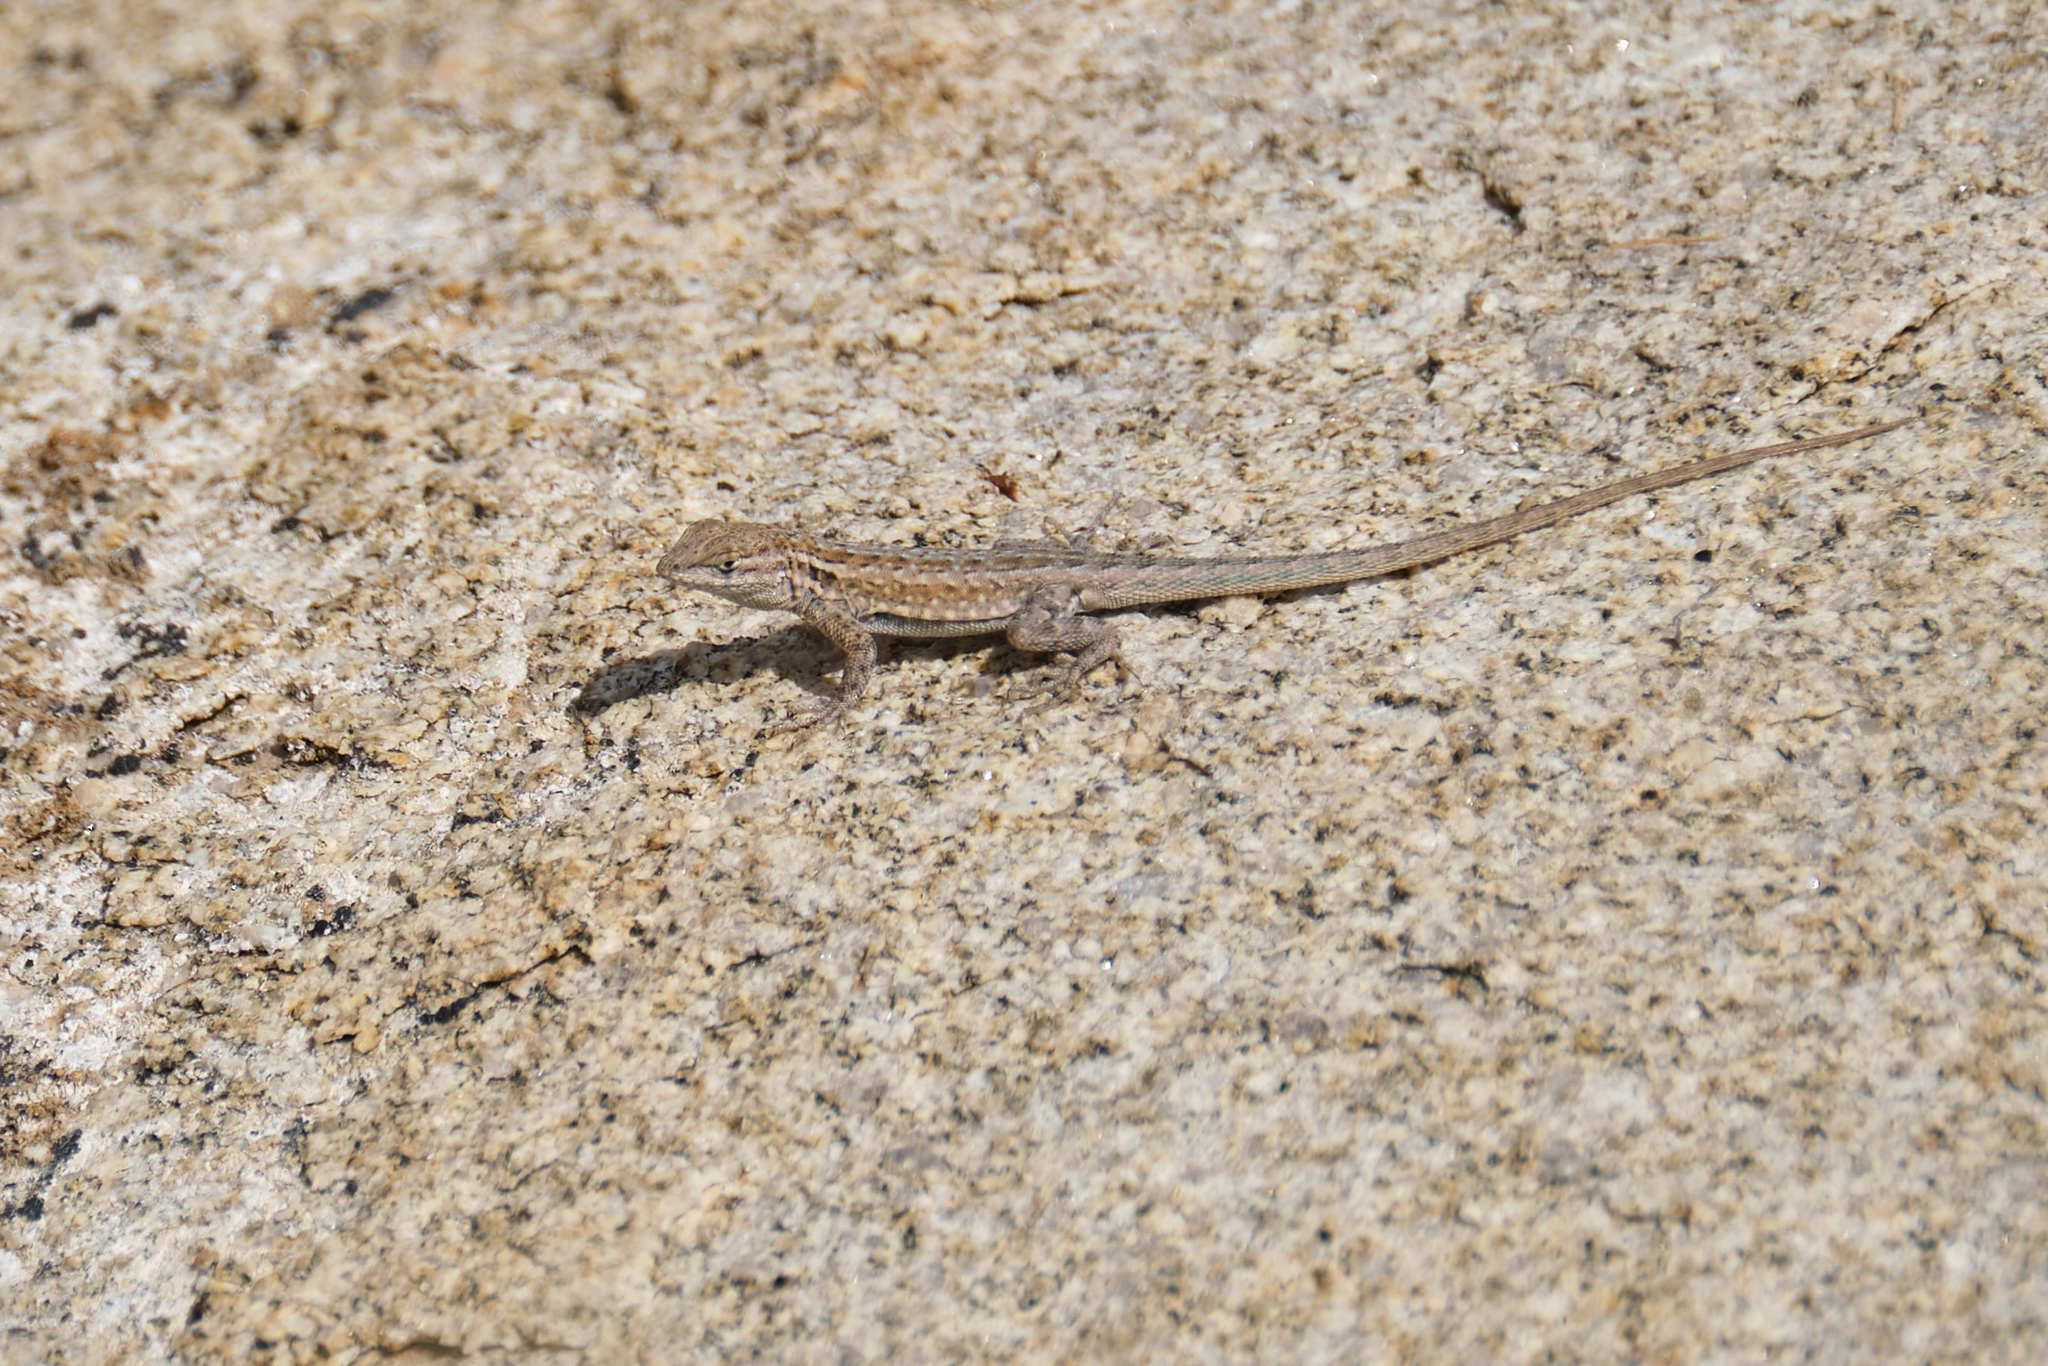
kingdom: Animalia
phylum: Chordata
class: Squamata
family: Phrynosomatidae
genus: Uta
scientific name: Uta stansburiana
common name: Side-blotched lizard
